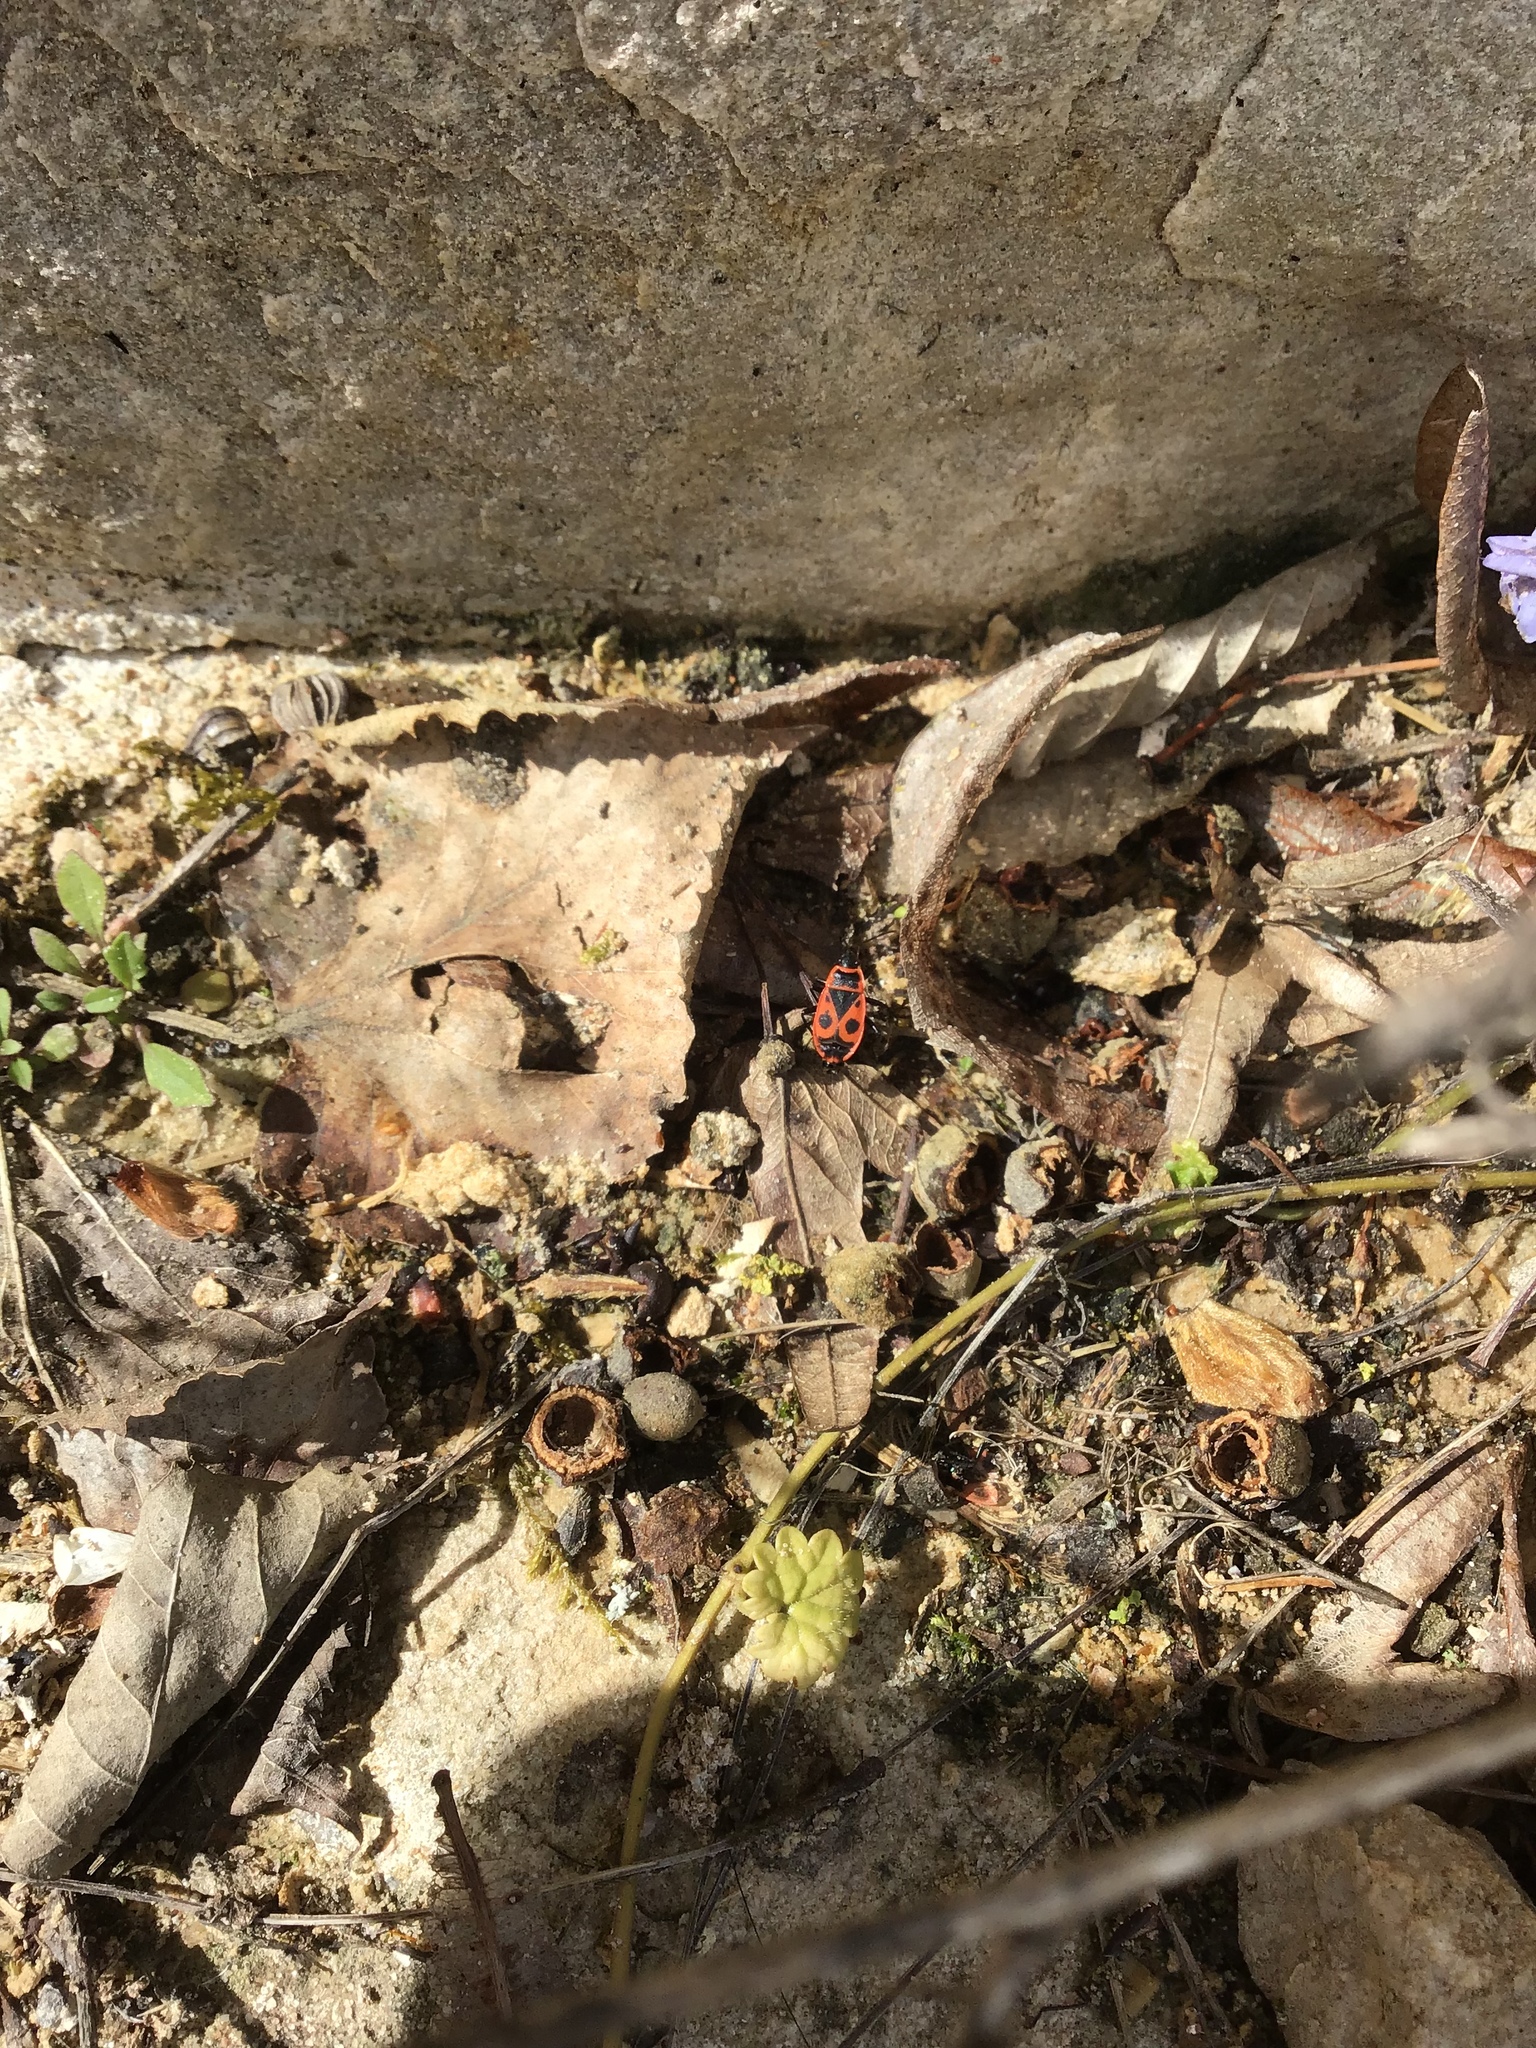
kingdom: Animalia
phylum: Arthropoda
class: Insecta
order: Hemiptera
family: Pyrrhocoridae
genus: Pyrrhocoris
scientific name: Pyrrhocoris apterus
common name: Firebug
